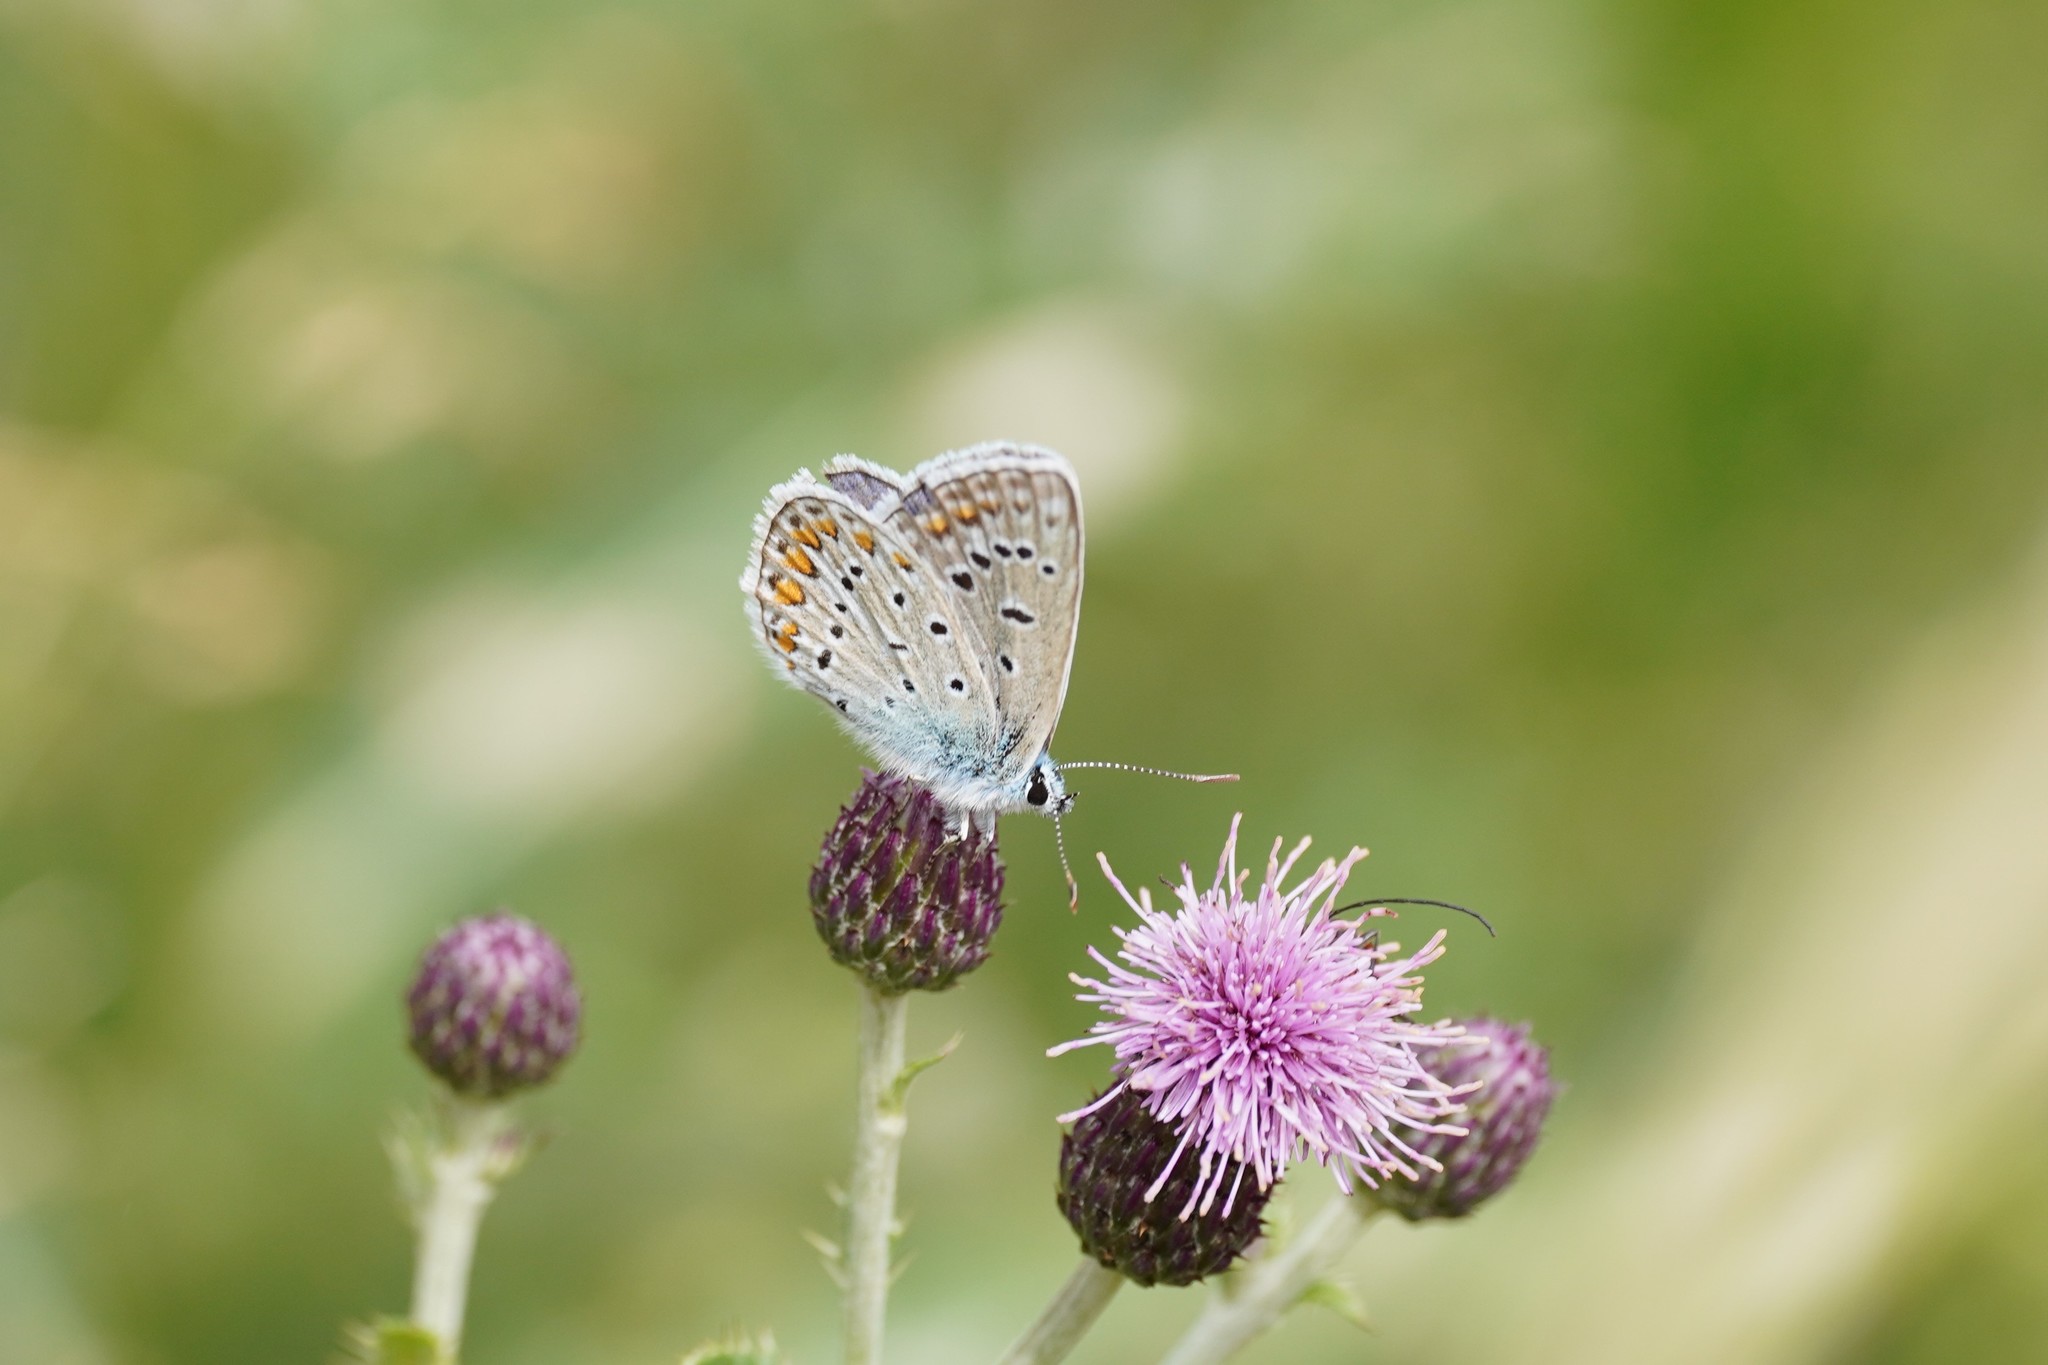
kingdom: Animalia
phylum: Arthropoda
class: Insecta
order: Lepidoptera
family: Lycaenidae
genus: Polyommatus
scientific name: Polyommatus icarus
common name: Common blue
